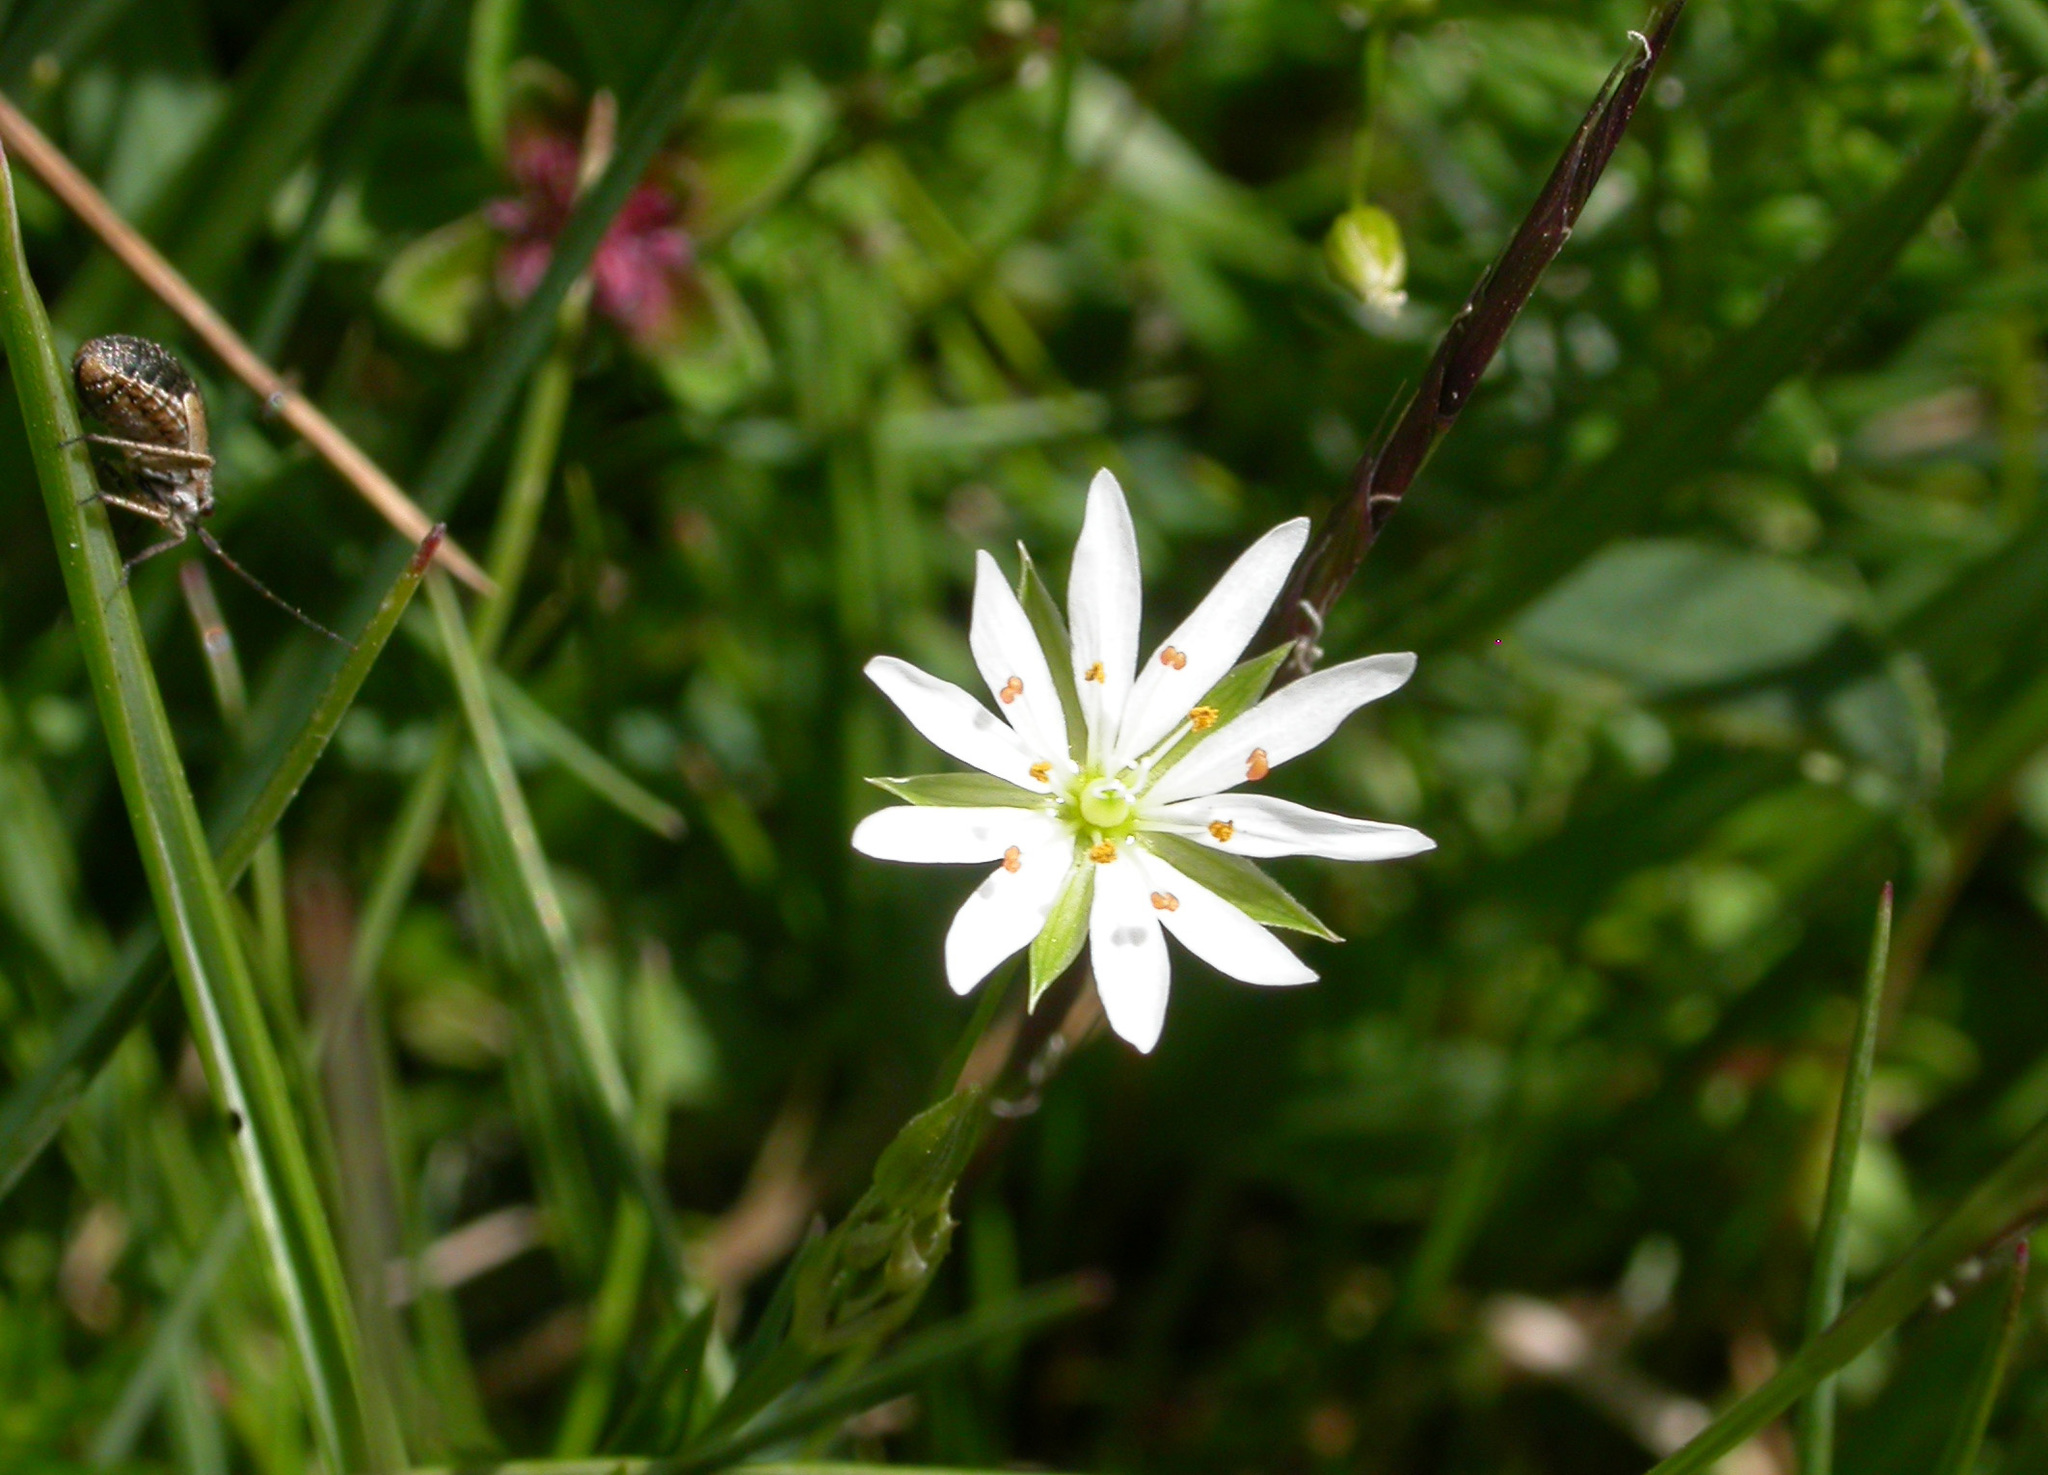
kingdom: Plantae
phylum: Tracheophyta
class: Magnoliopsida
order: Caryophyllales
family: Caryophyllaceae
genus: Stellaria
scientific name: Stellaria graminea
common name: Grass-like starwort
